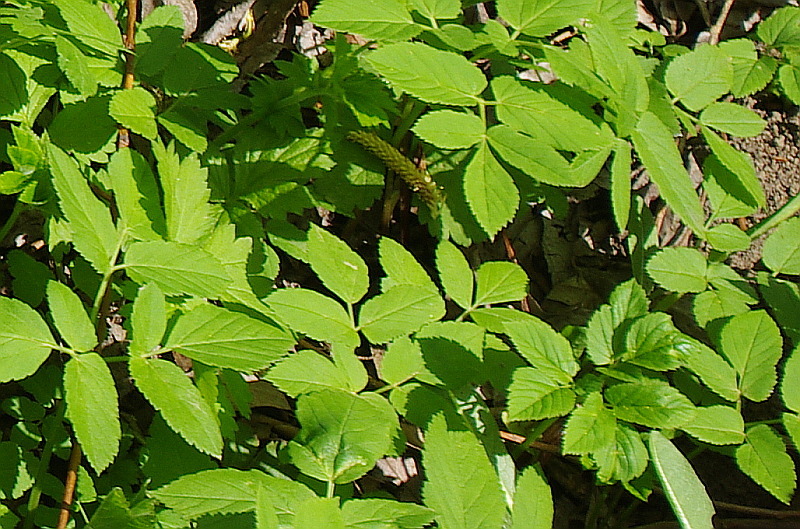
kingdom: Plantae
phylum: Tracheophyta
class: Magnoliopsida
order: Apiales
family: Apiaceae
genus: Aegopodium
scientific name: Aegopodium podagraria
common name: Ground-elder
